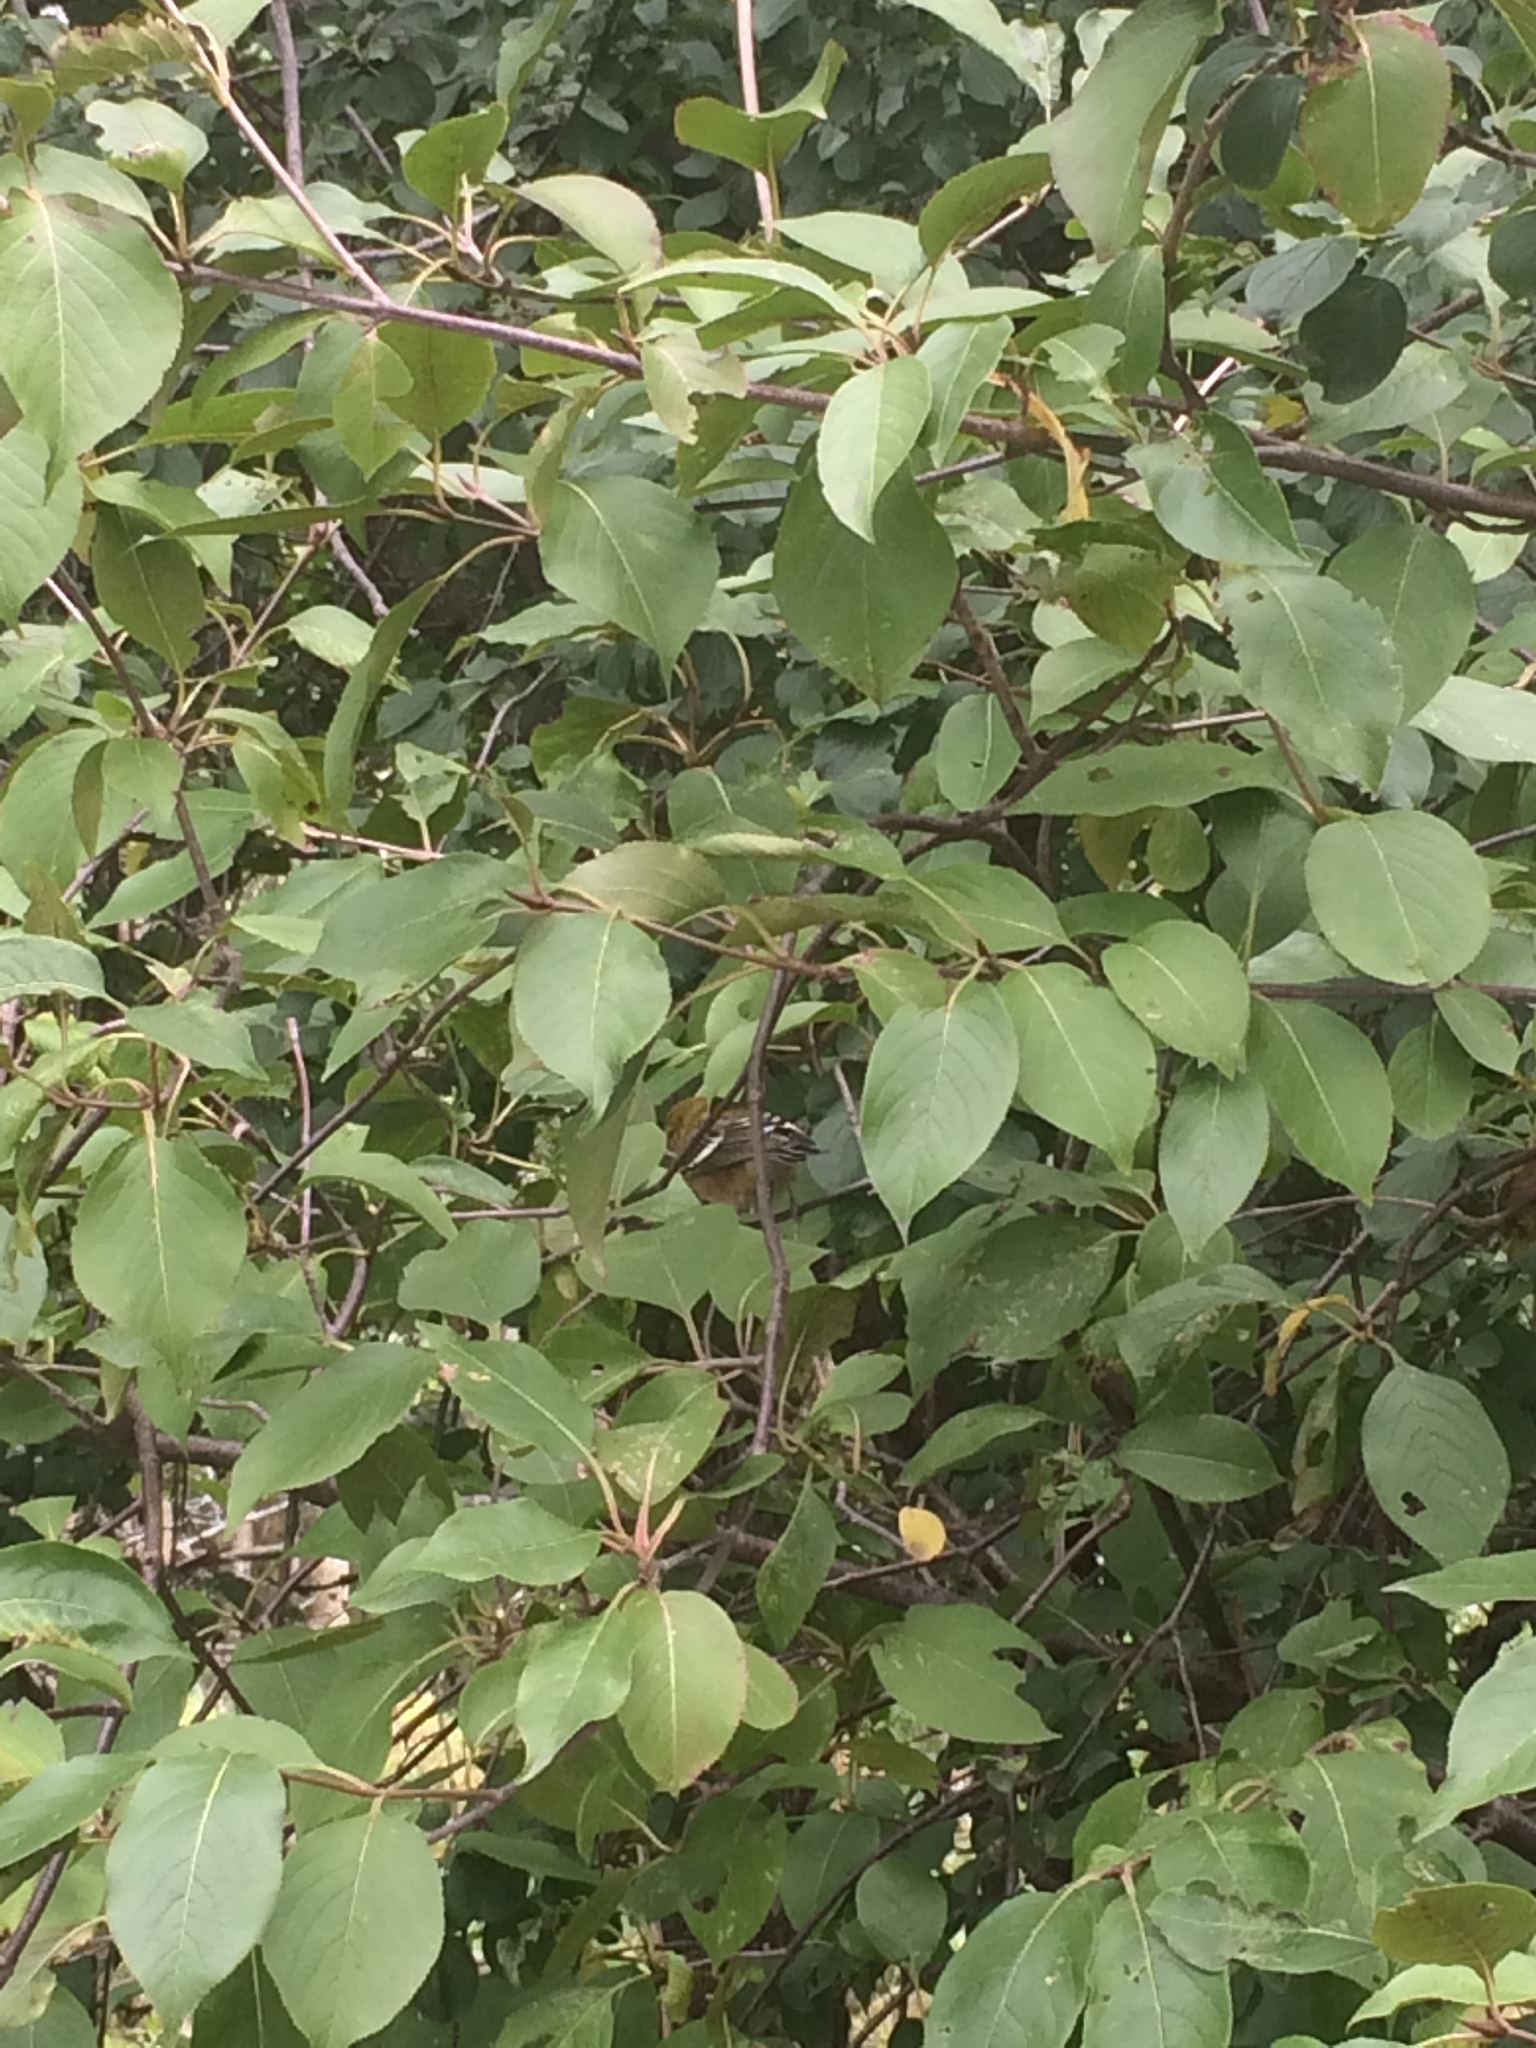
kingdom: Animalia
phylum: Chordata
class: Aves
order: Passeriformes
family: Parulidae
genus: Setophaga
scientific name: Setophaga castanea
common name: Bay-breasted warbler
